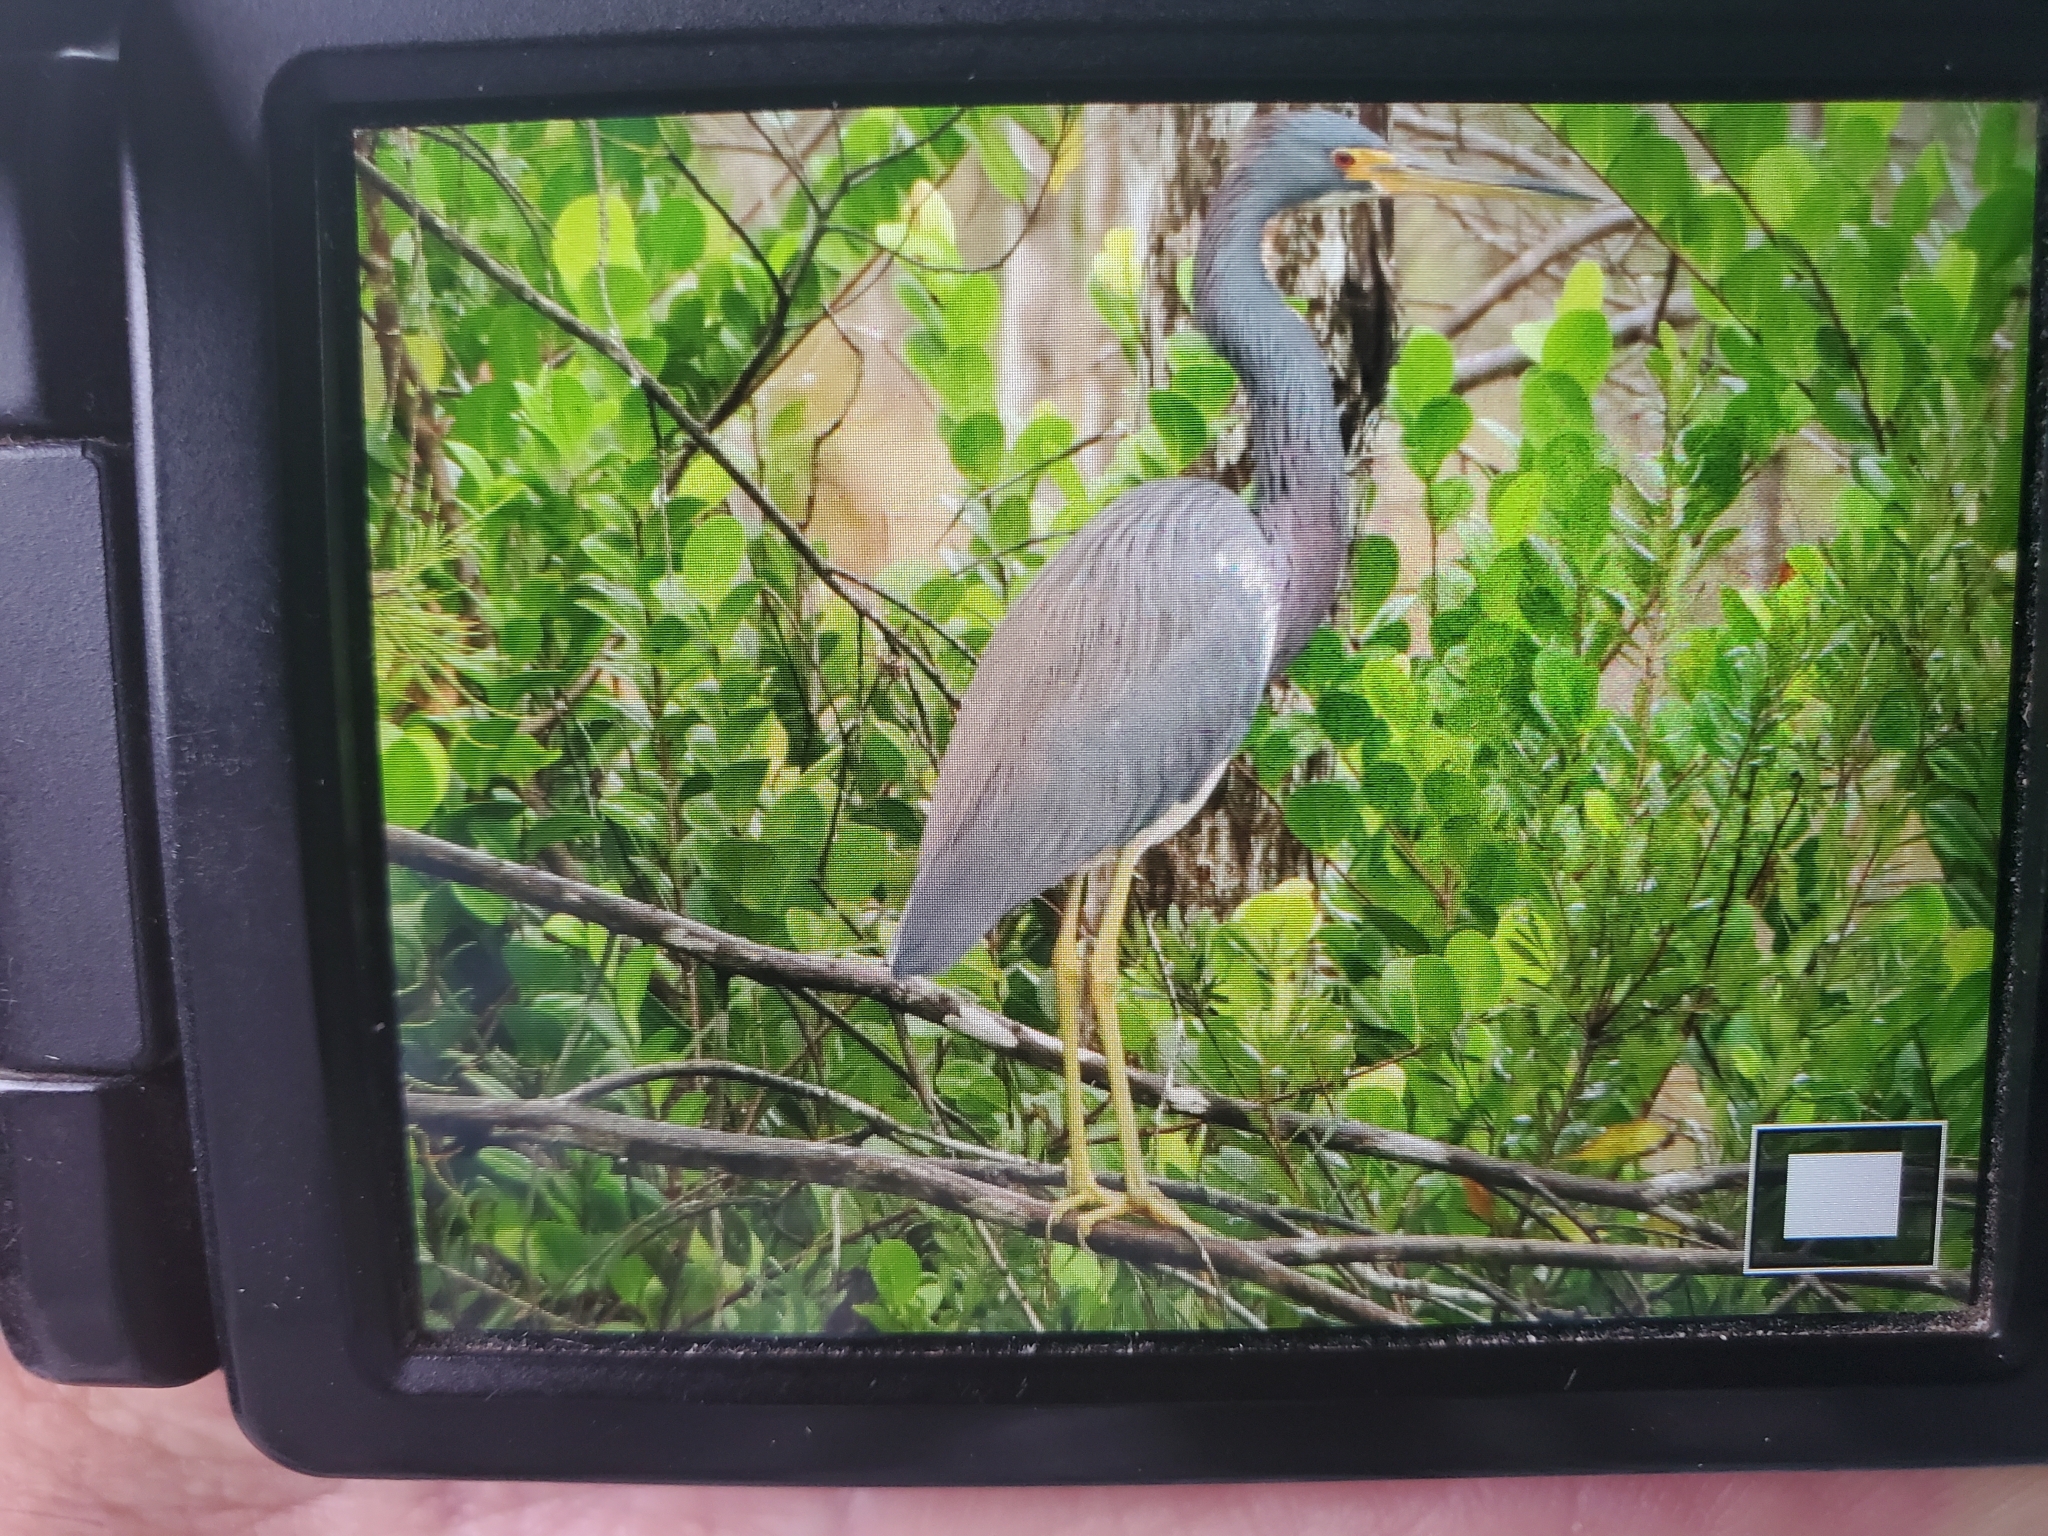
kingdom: Animalia
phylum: Chordata
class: Aves
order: Pelecaniformes
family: Ardeidae
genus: Egretta
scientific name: Egretta tricolor
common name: Tricolored heron
